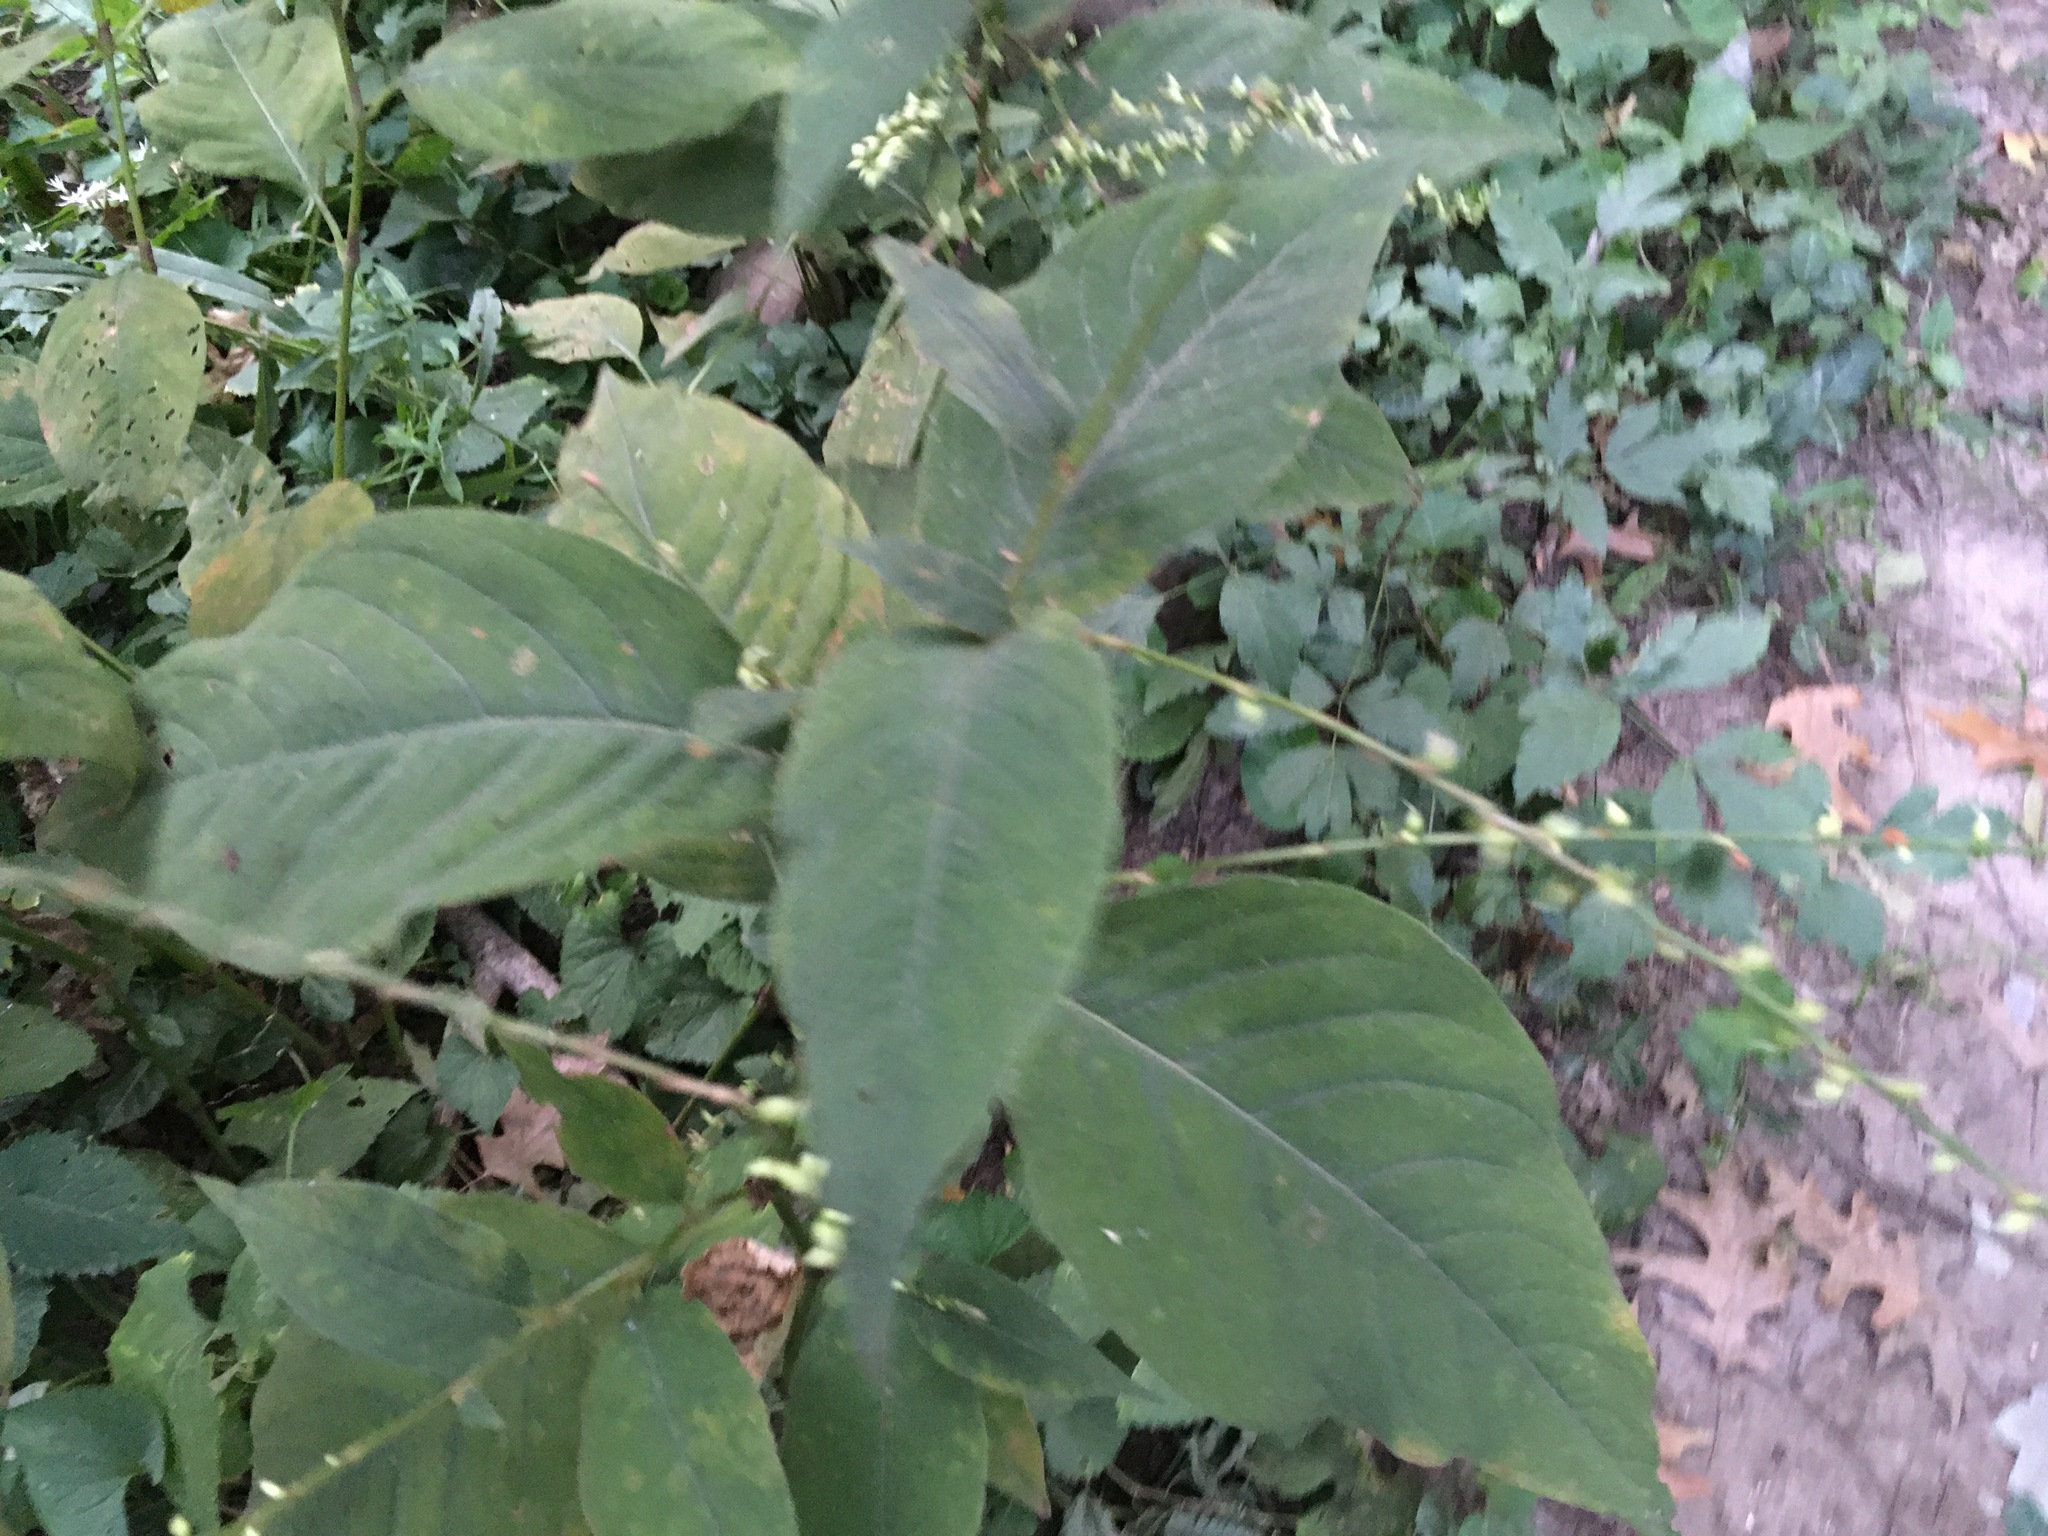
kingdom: Plantae
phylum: Tracheophyta
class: Magnoliopsida
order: Caryophyllales
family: Polygonaceae
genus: Persicaria
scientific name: Persicaria virginiana
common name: Jumpseed
